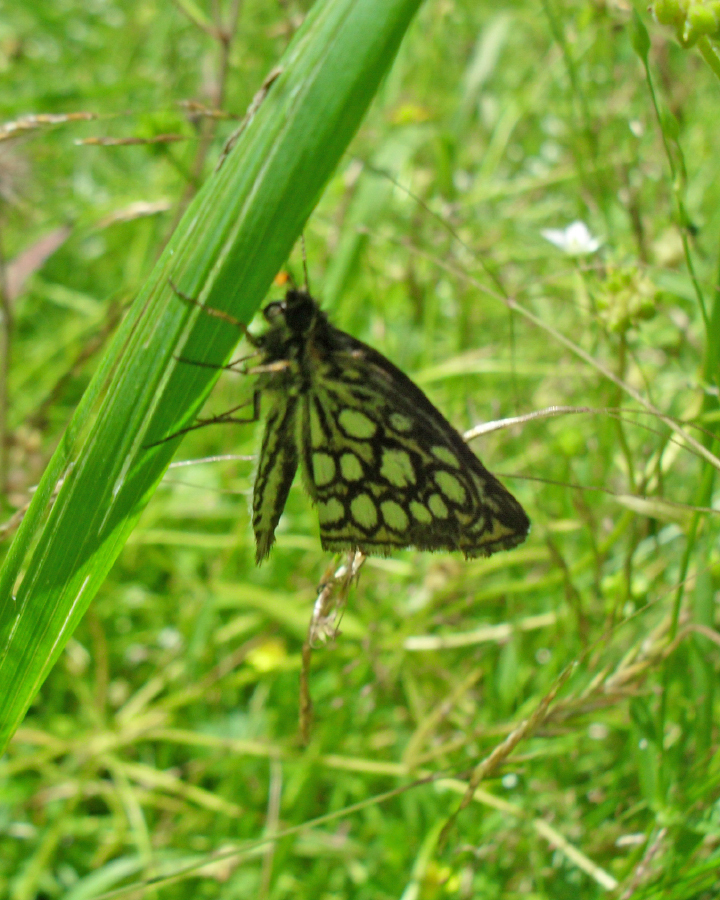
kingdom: Animalia
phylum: Arthropoda
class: Insecta
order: Lepidoptera
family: Hesperiidae
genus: Heteropterus
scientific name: Heteropterus morpheus
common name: Large chequered skipper
